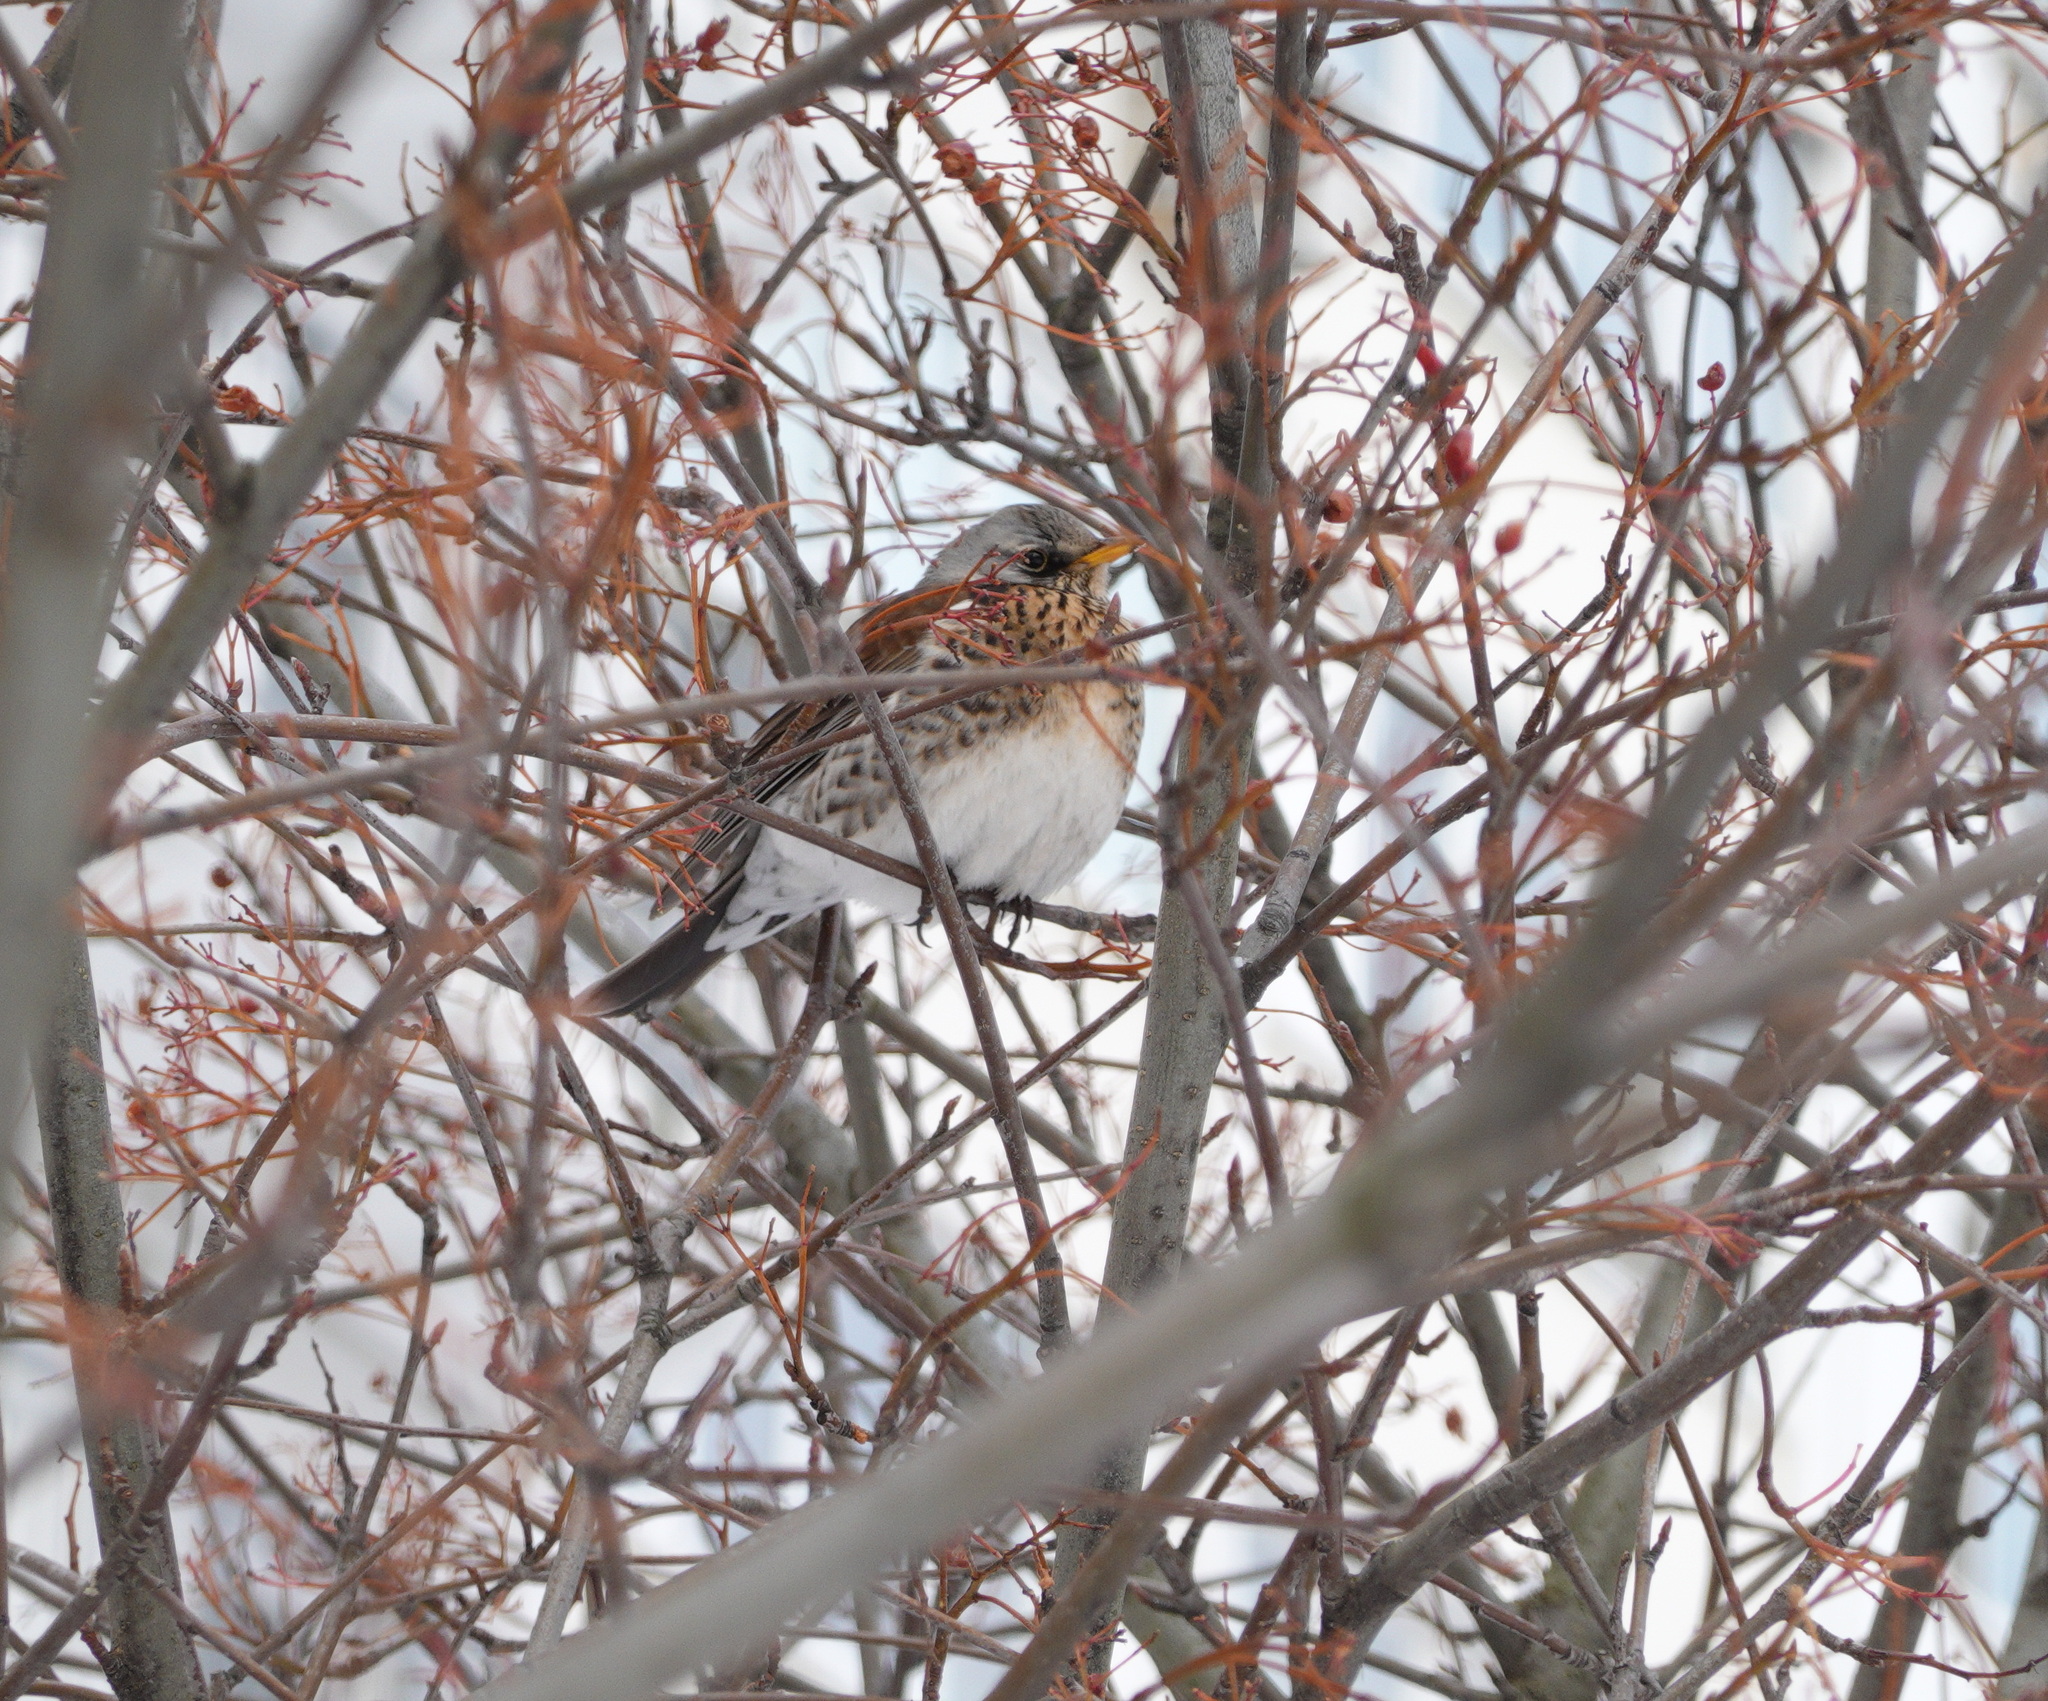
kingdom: Animalia
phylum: Chordata
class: Aves
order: Passeriformes
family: Turdidae
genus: Turdus
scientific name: Turdus pilaris
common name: Fieldfare
